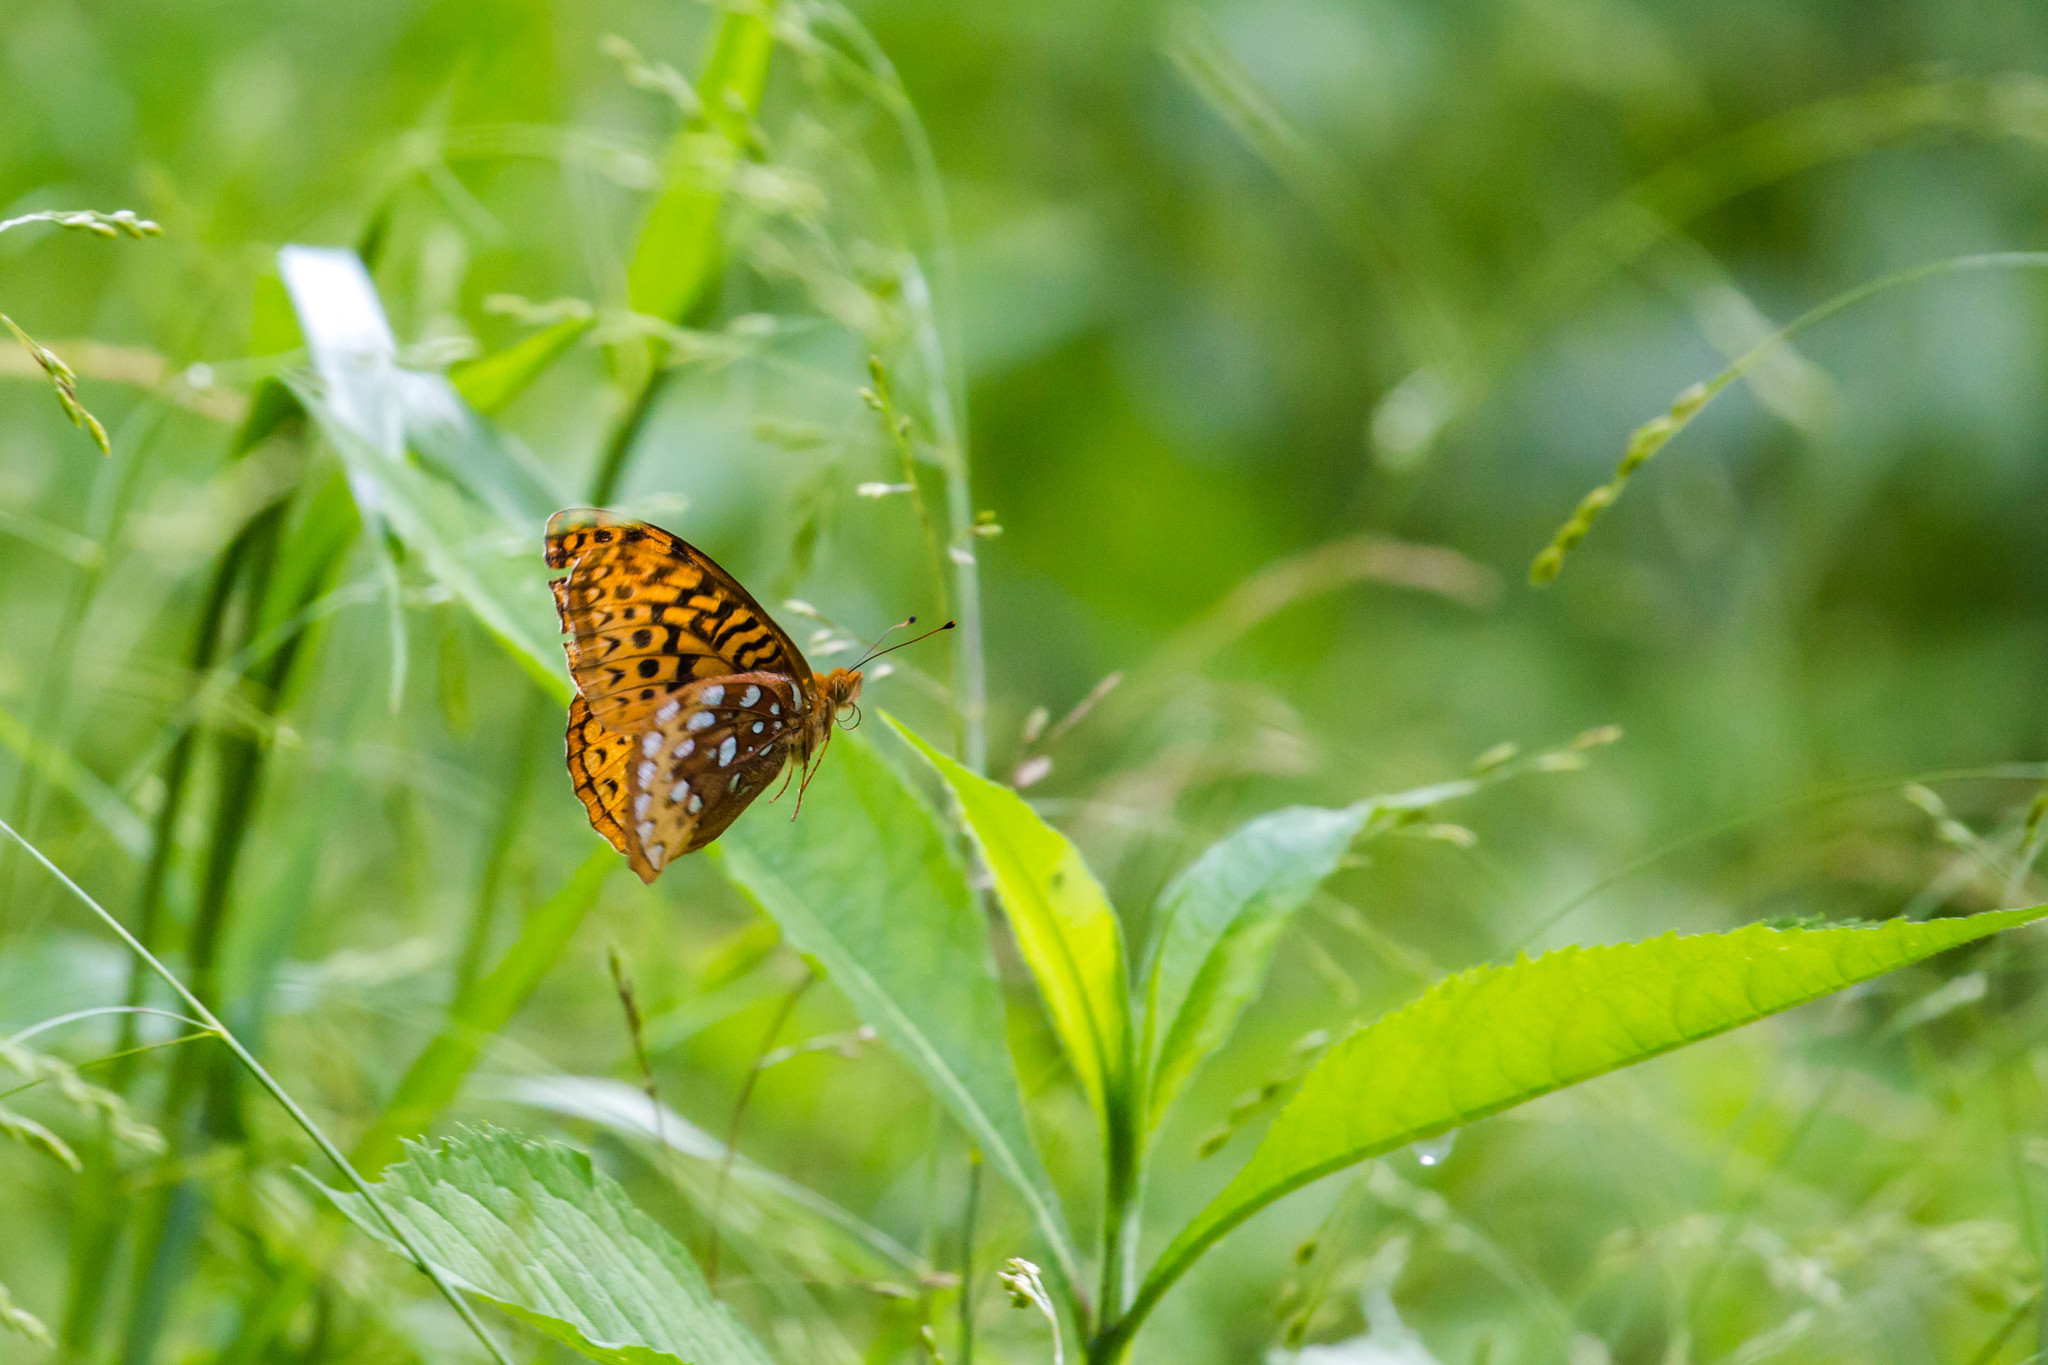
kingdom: Animalia
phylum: Arthropoda
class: Insecta
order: Lepidoptera
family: Nymphalidae
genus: Speyeria
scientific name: Speyeria cybele
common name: Great spangled fritillary
